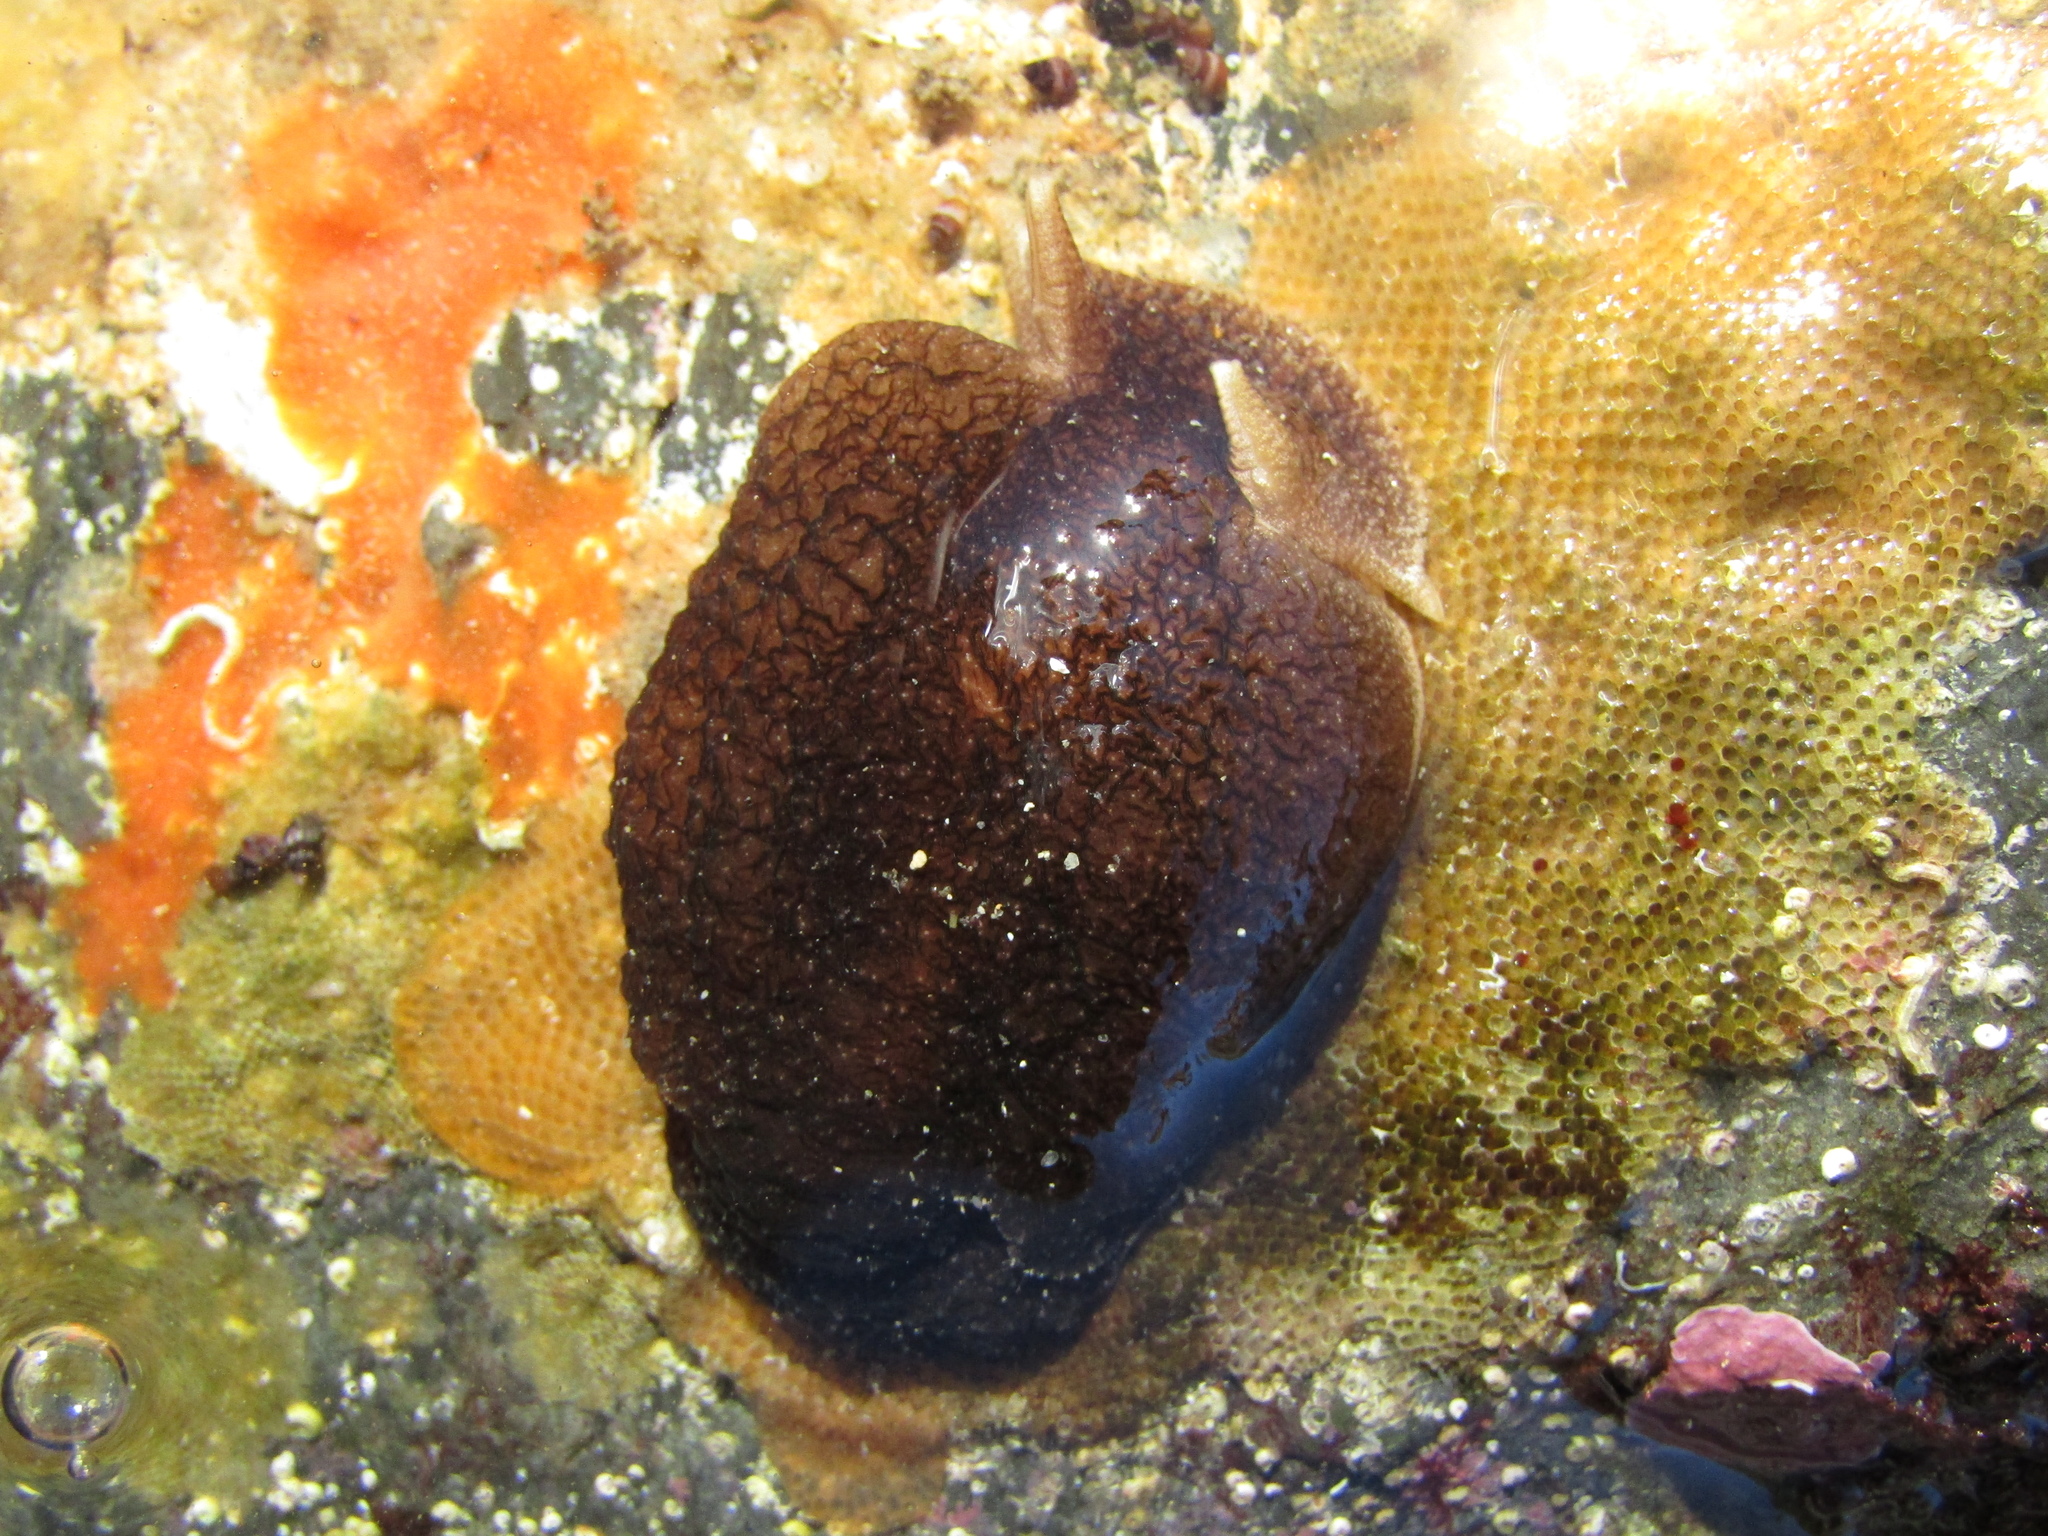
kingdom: Animalia
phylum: Mollusca
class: Gastropoda
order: Pleurobranchida
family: Pleurobranchaeidae
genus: Pleurobranchaea
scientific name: Pleurobranchaea maculata
